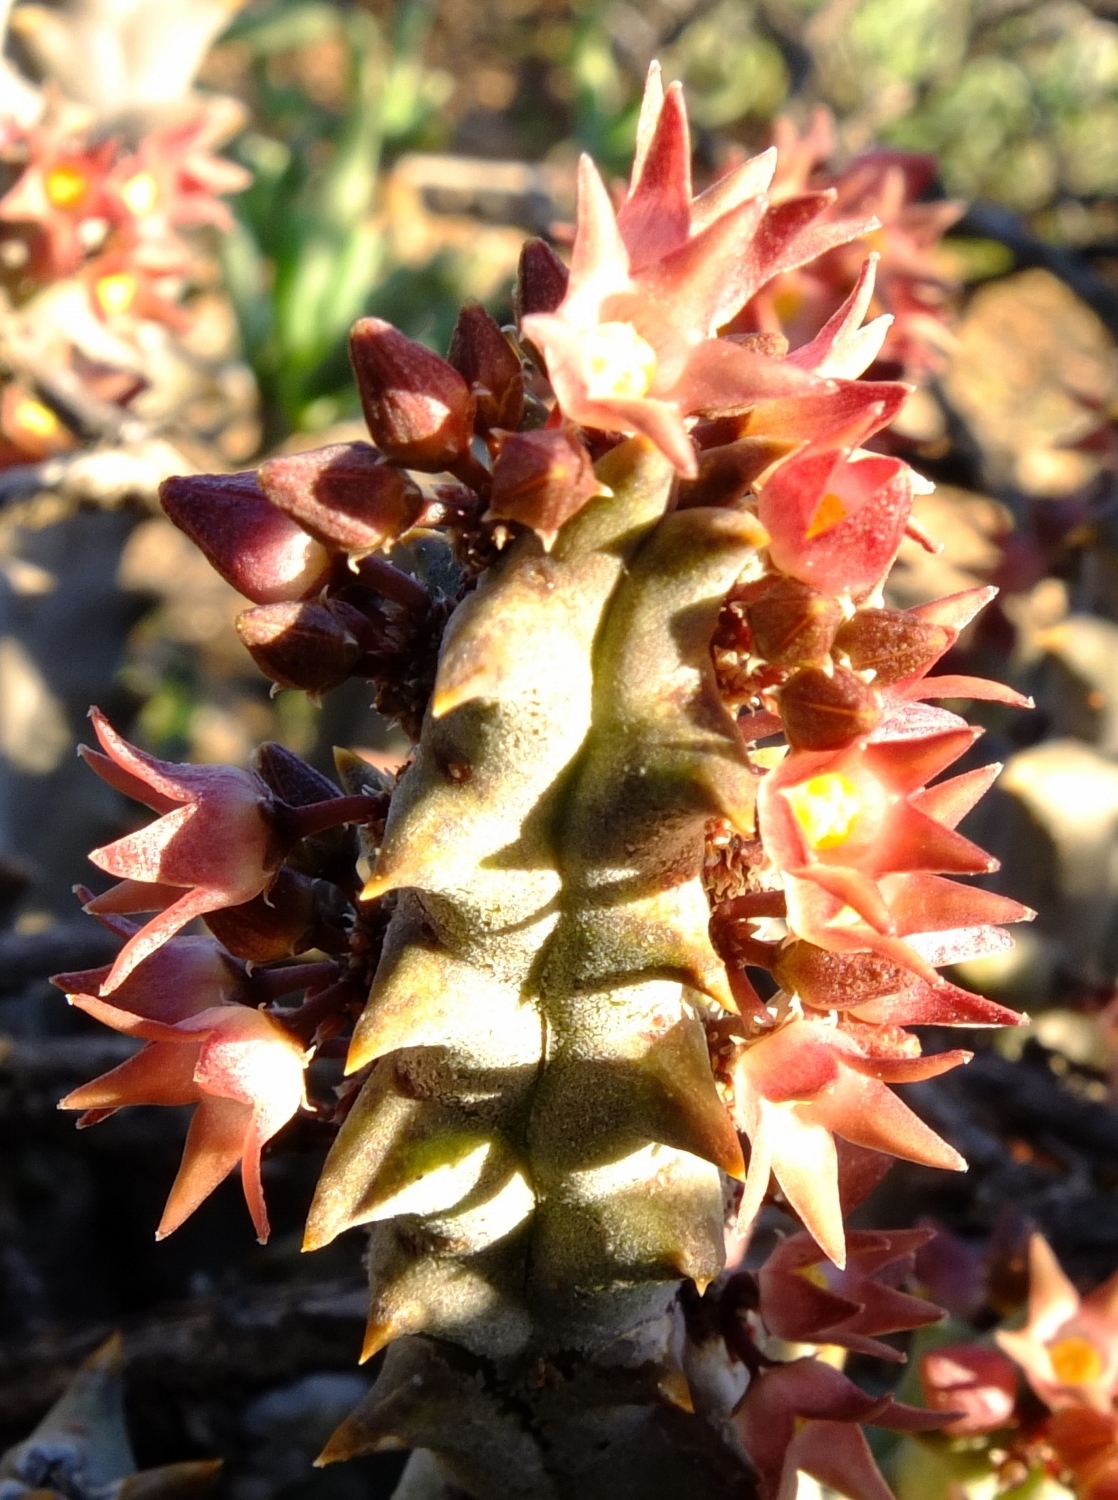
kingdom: Plantae
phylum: Tracheophyta
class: Magnoliopsida
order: Gentianales
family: Apocynaceae
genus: Ceropegia
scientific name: Ceropegia incarnata
